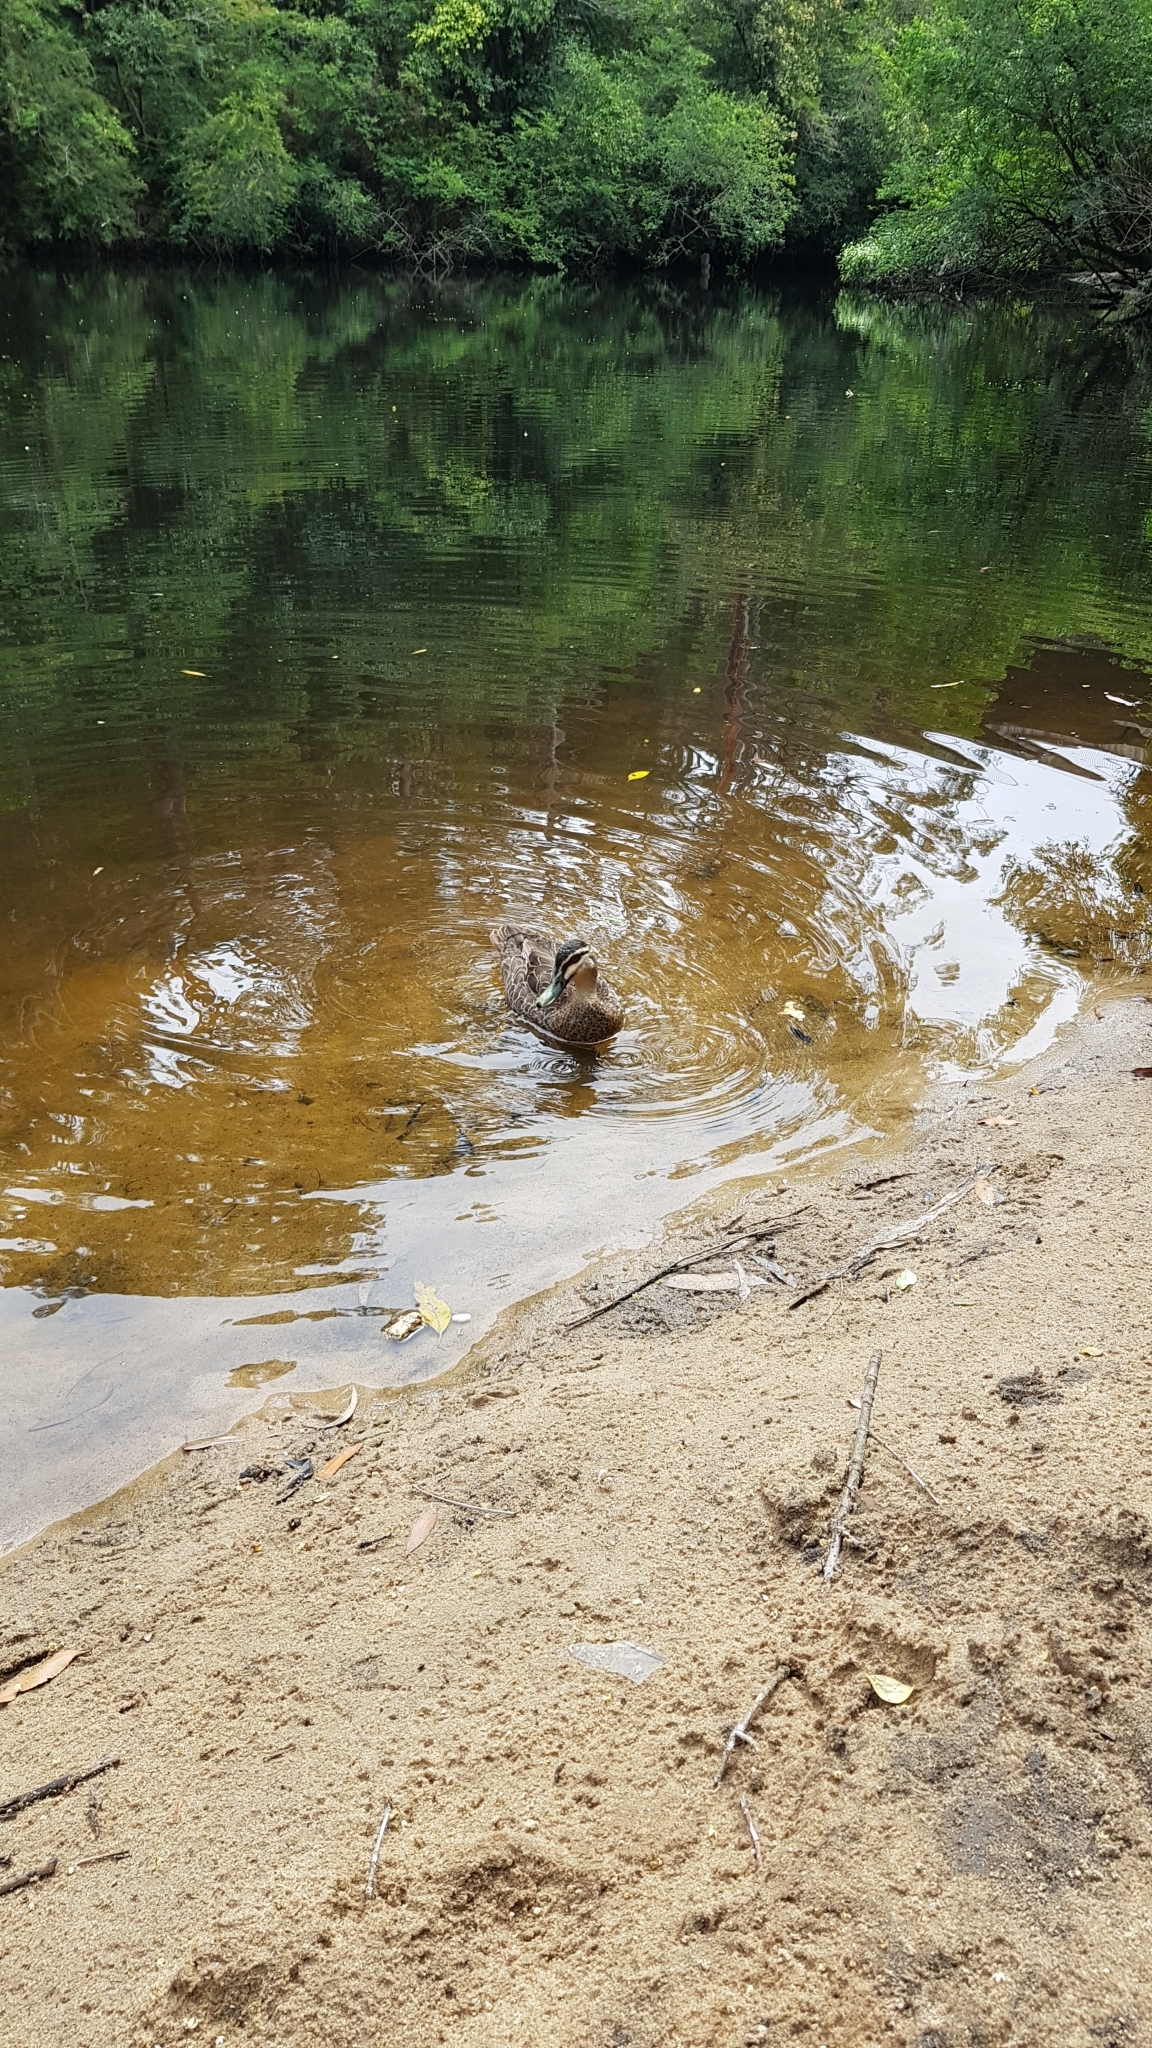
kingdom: Animalia
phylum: Chordata
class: Aves
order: Anseriformes
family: Anatidae
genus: Anas
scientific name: Anas superciliosa
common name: Pacific black duck
